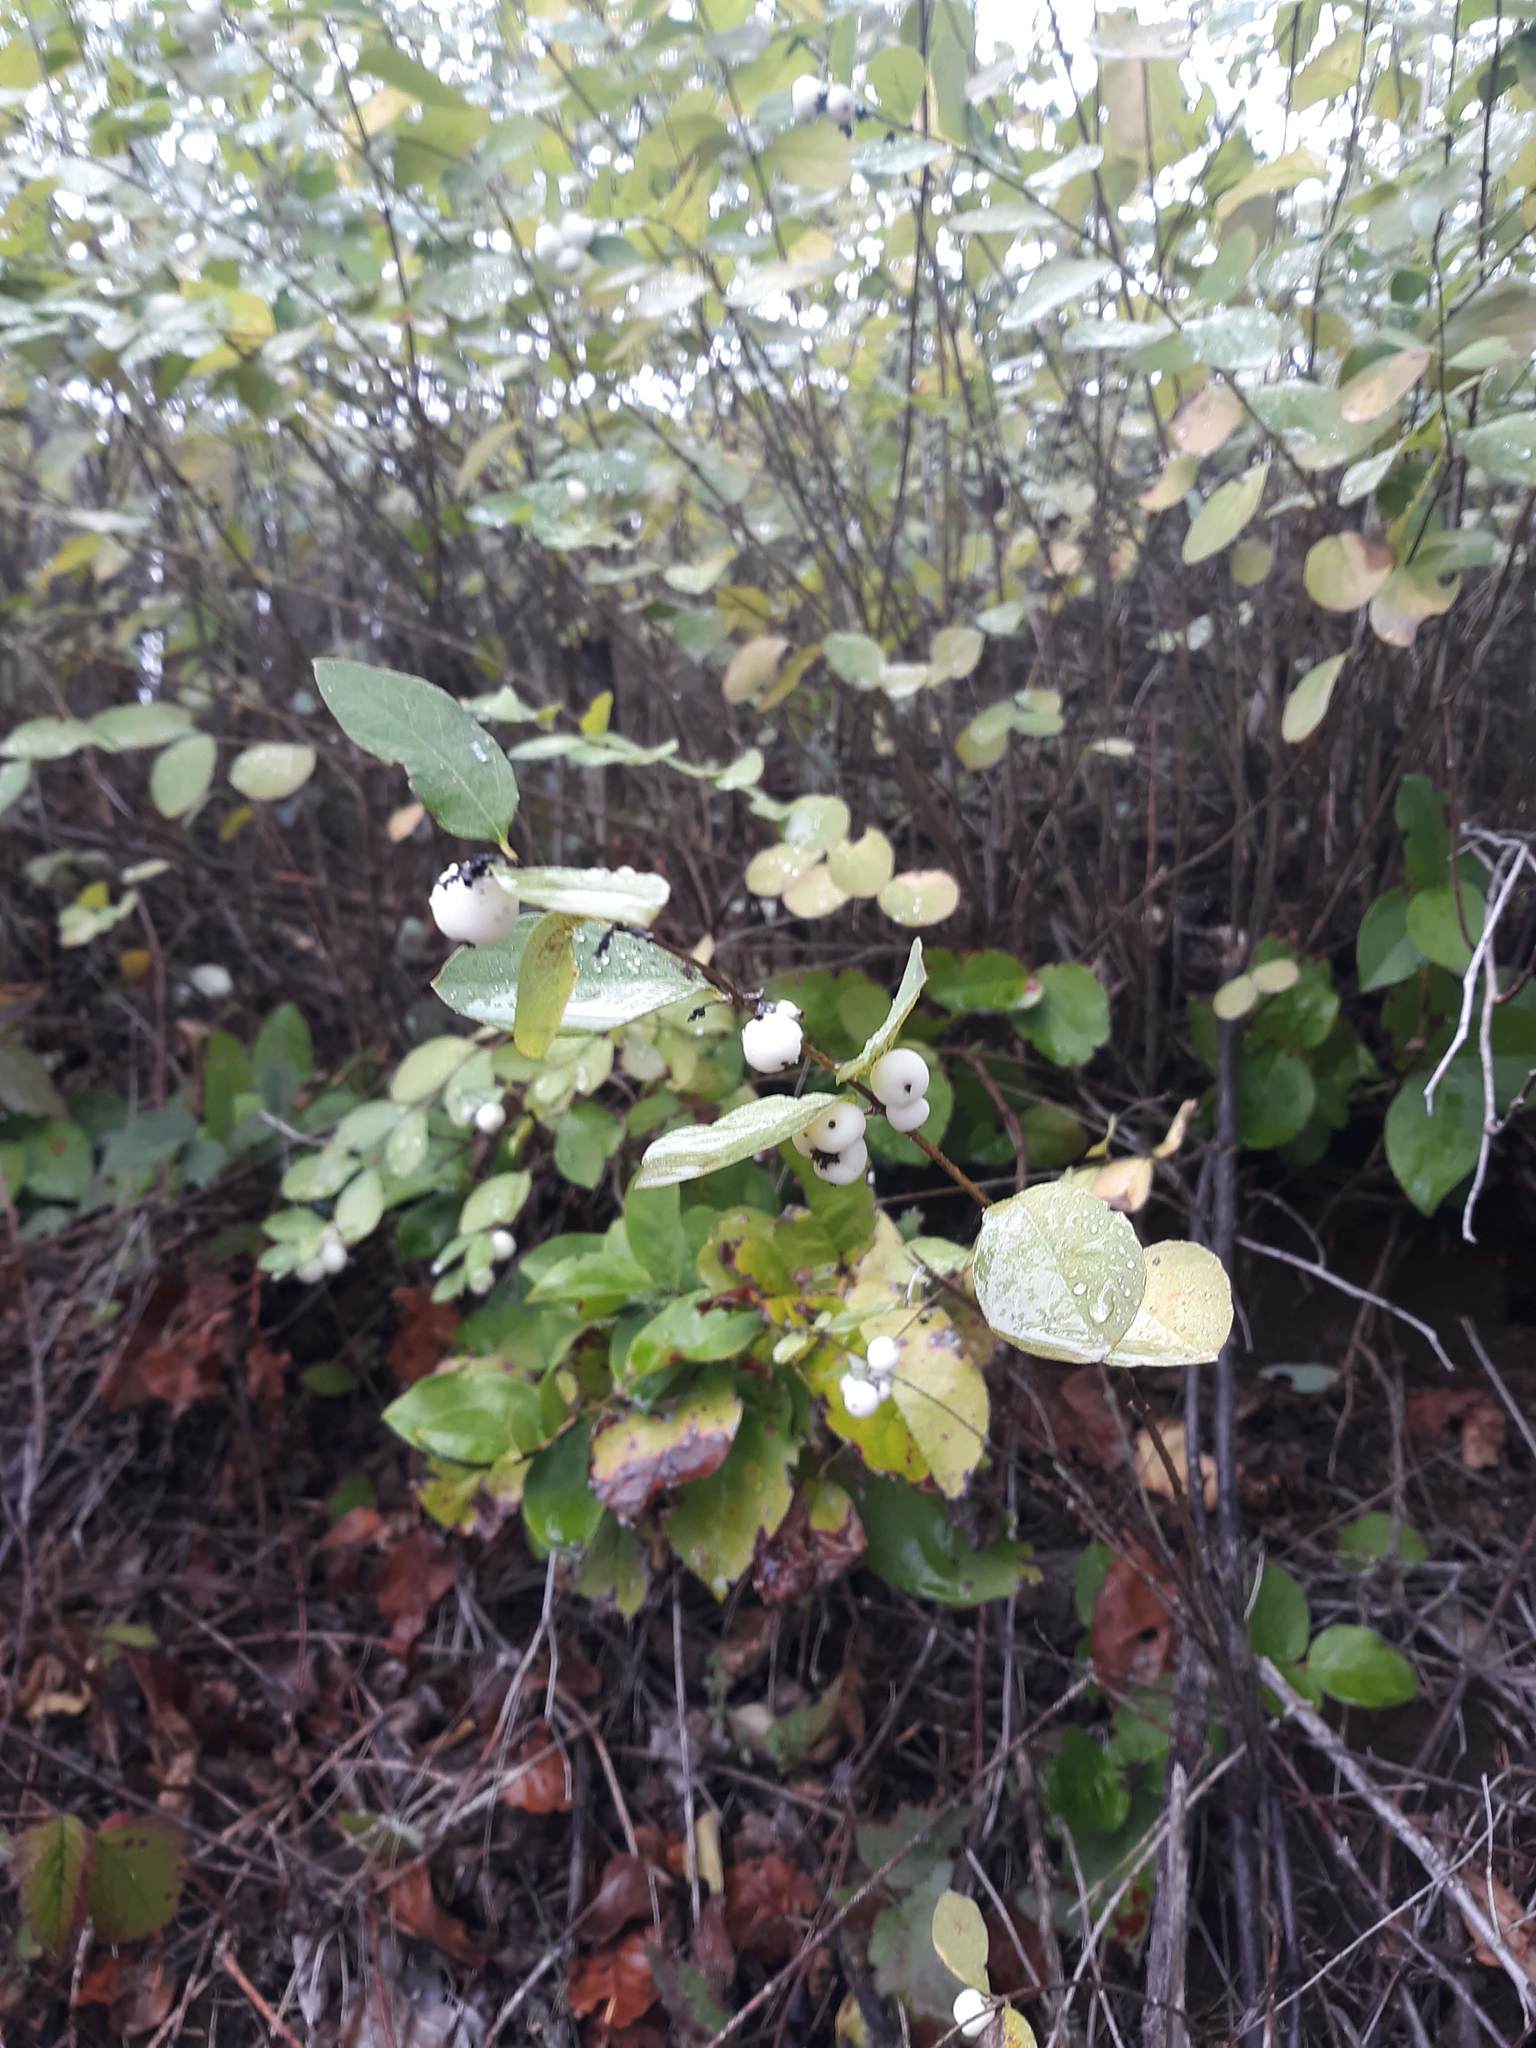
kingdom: Plantae
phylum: Tracheophyta
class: Magnoliopsida
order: Dipsacales
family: Caprifoliaceae
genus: Symphoricarpos
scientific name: Symphoricarpos albus
